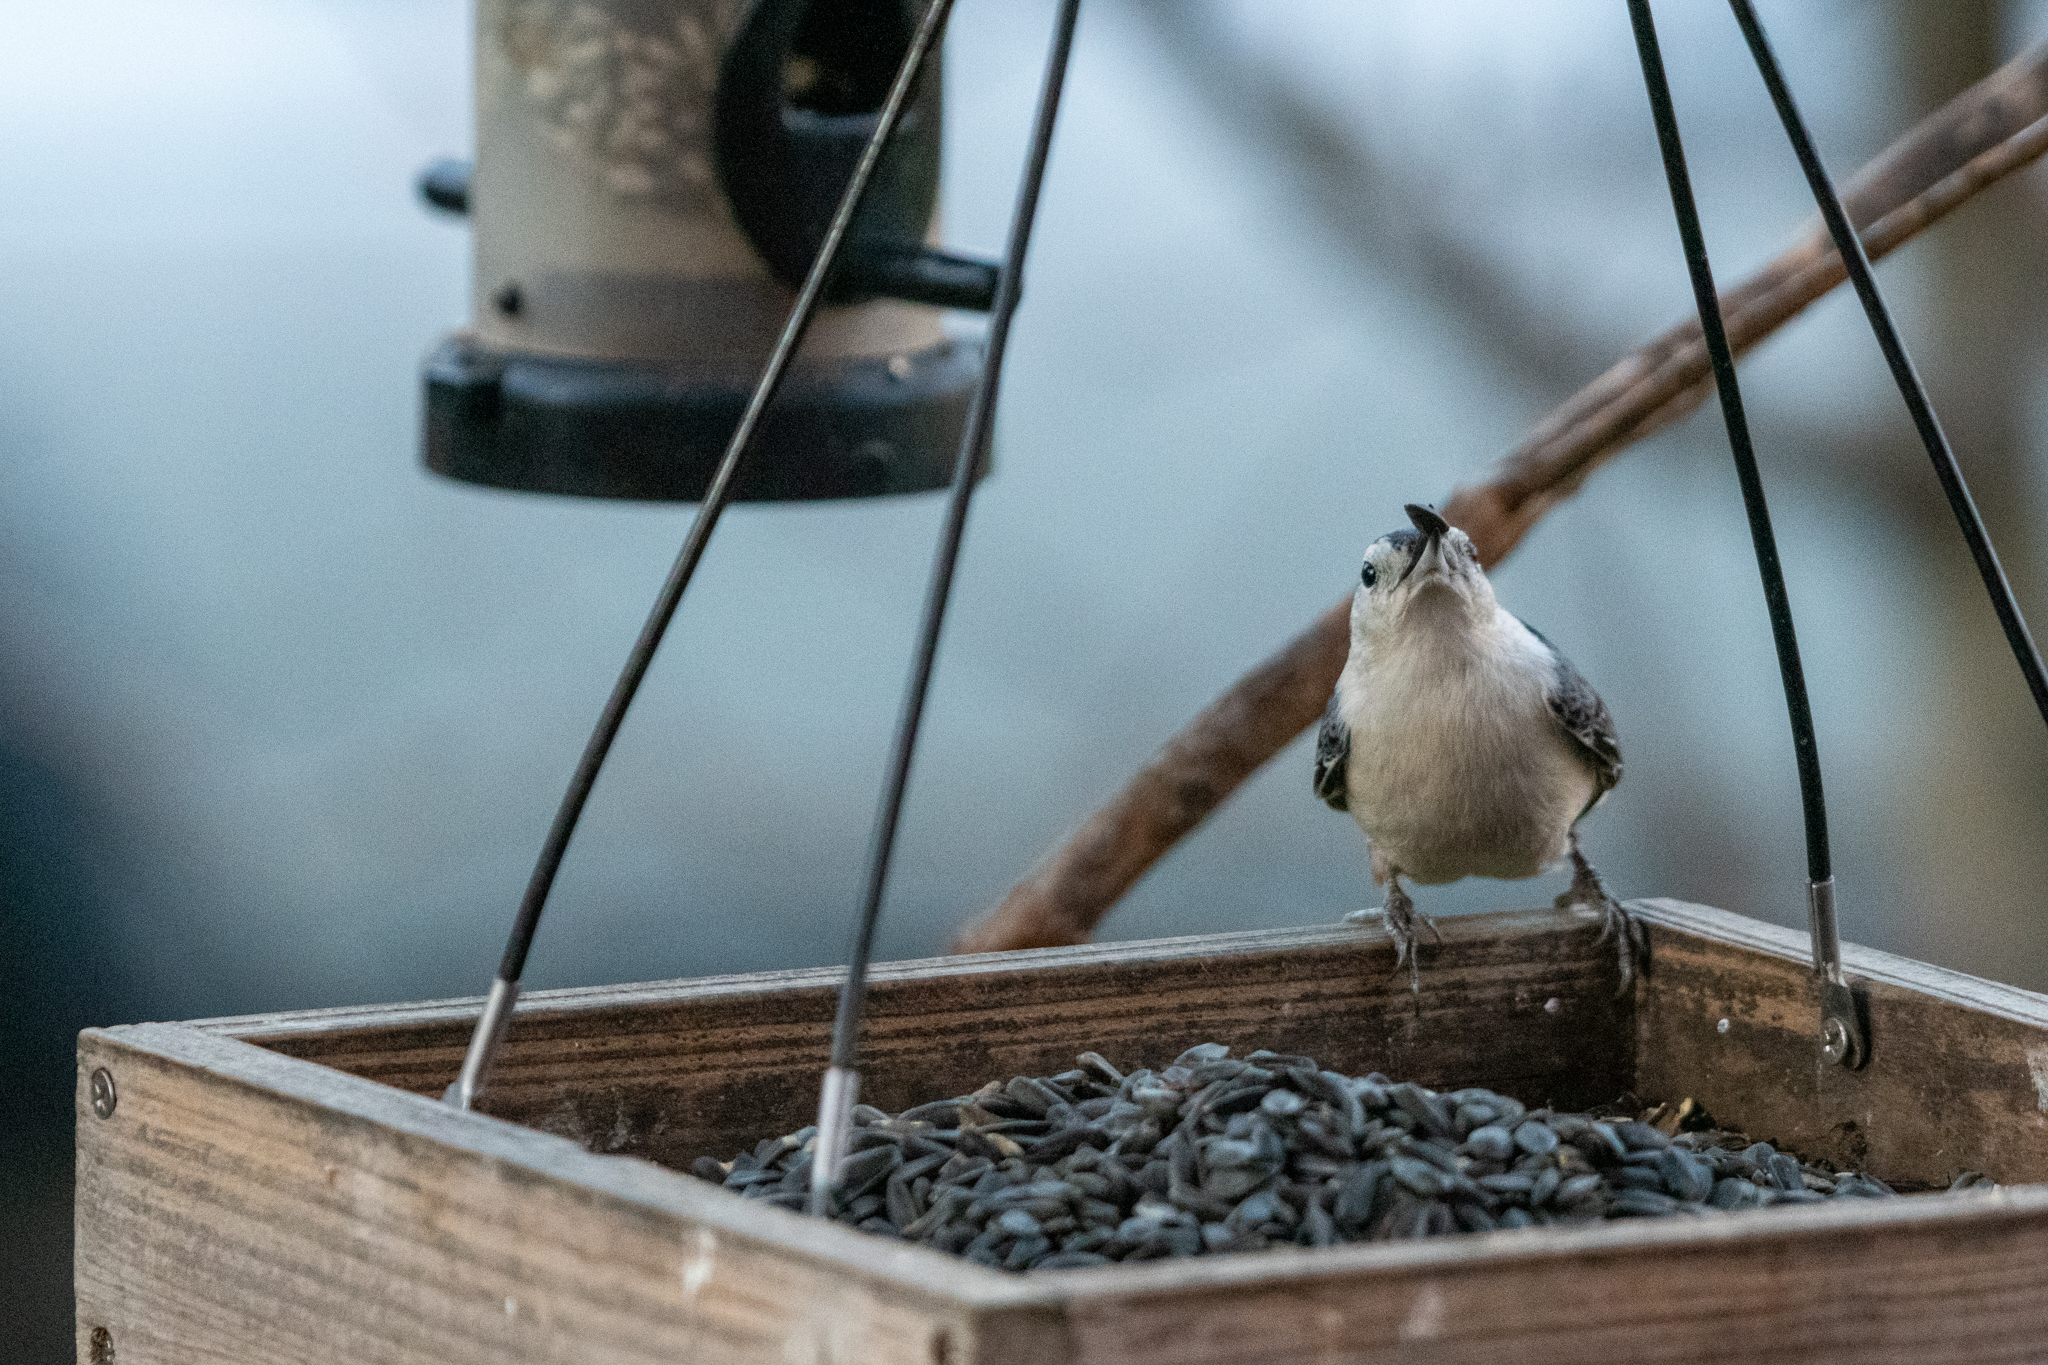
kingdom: Animalia
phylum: Chordata
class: Aves
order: Passeriformes
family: Sittidae
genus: Sitta
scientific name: Sitta carolinensis
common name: White-breasted nuthatch
